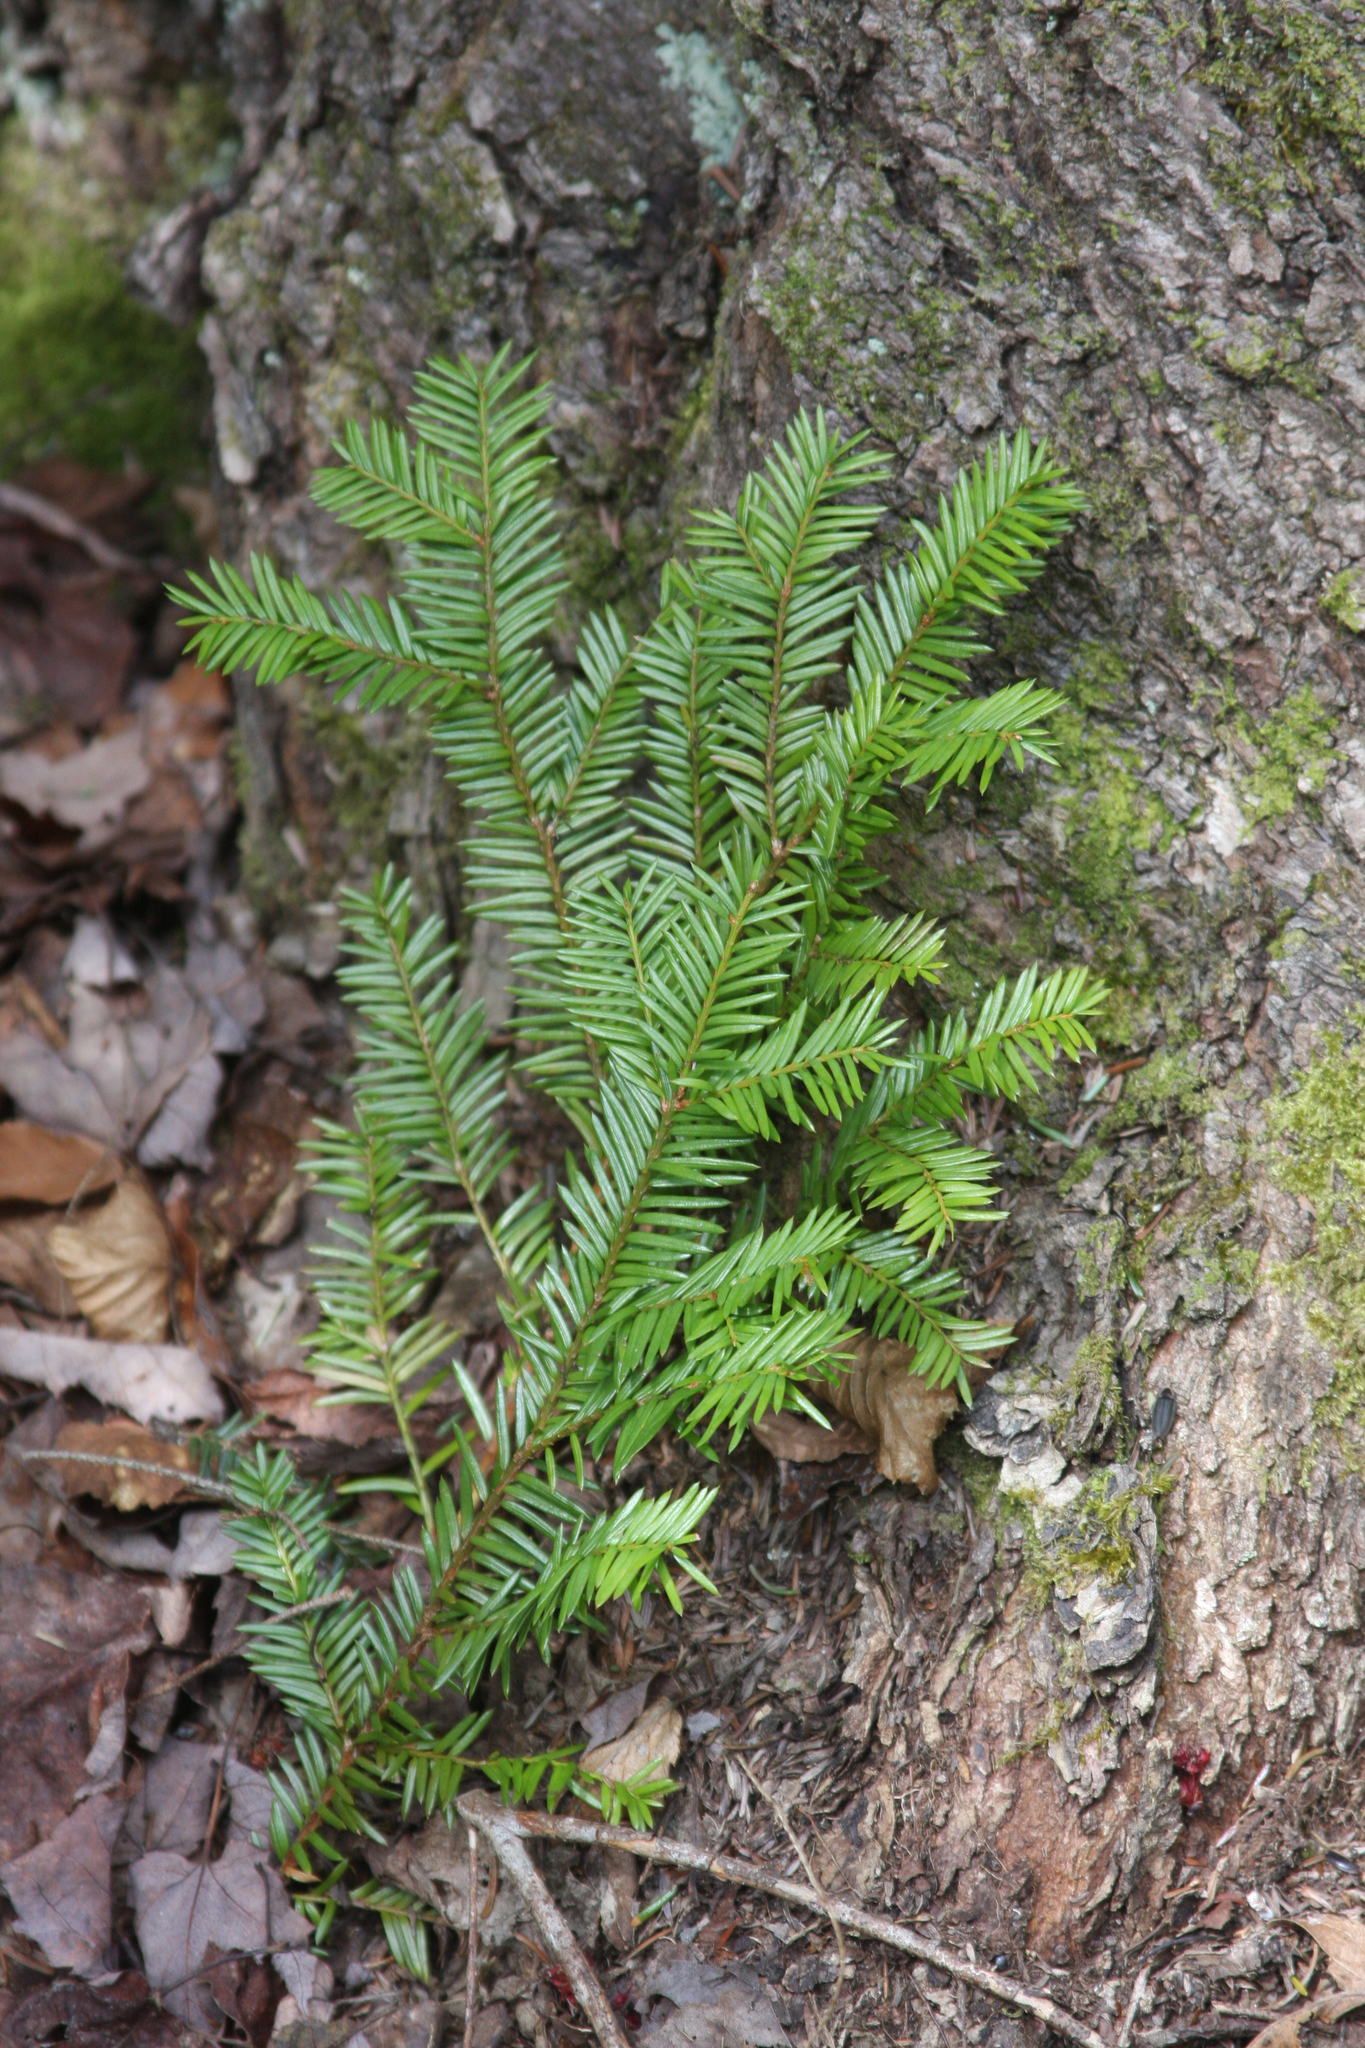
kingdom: Plantae
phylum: Tracheophyta
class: Pinopsida
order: Pinales
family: Taxaceae
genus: Taxus
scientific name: Taxus canadensis
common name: American yew
